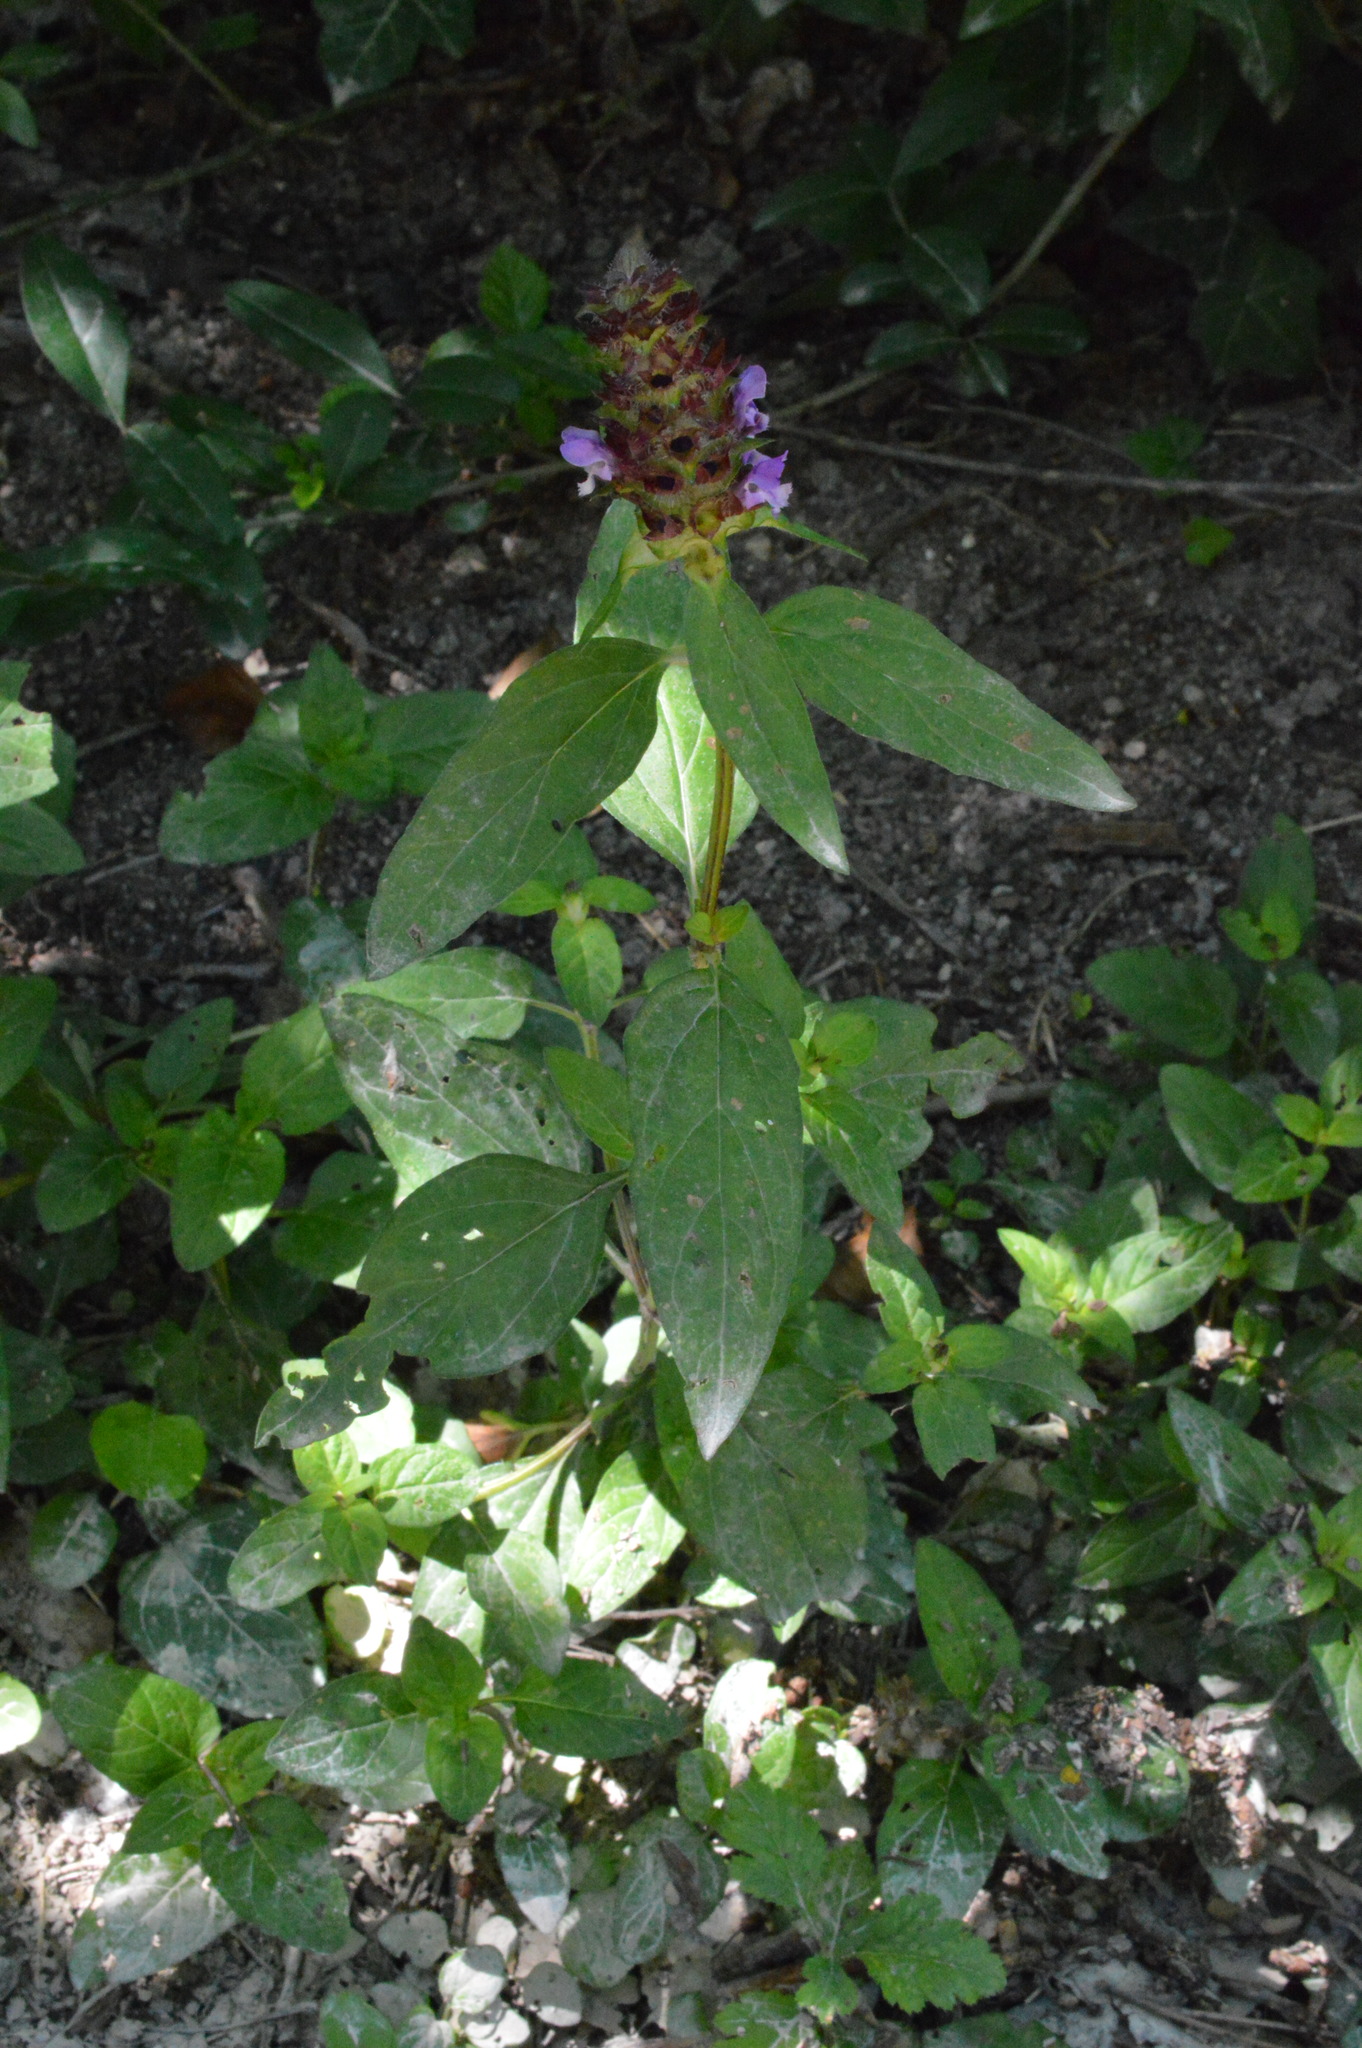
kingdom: Plantae
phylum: Tracheophyta
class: Magnoliopsida
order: Lamiales
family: Lamiaceae
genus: Prunella
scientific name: Prunella vulgaris
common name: Heal-all
